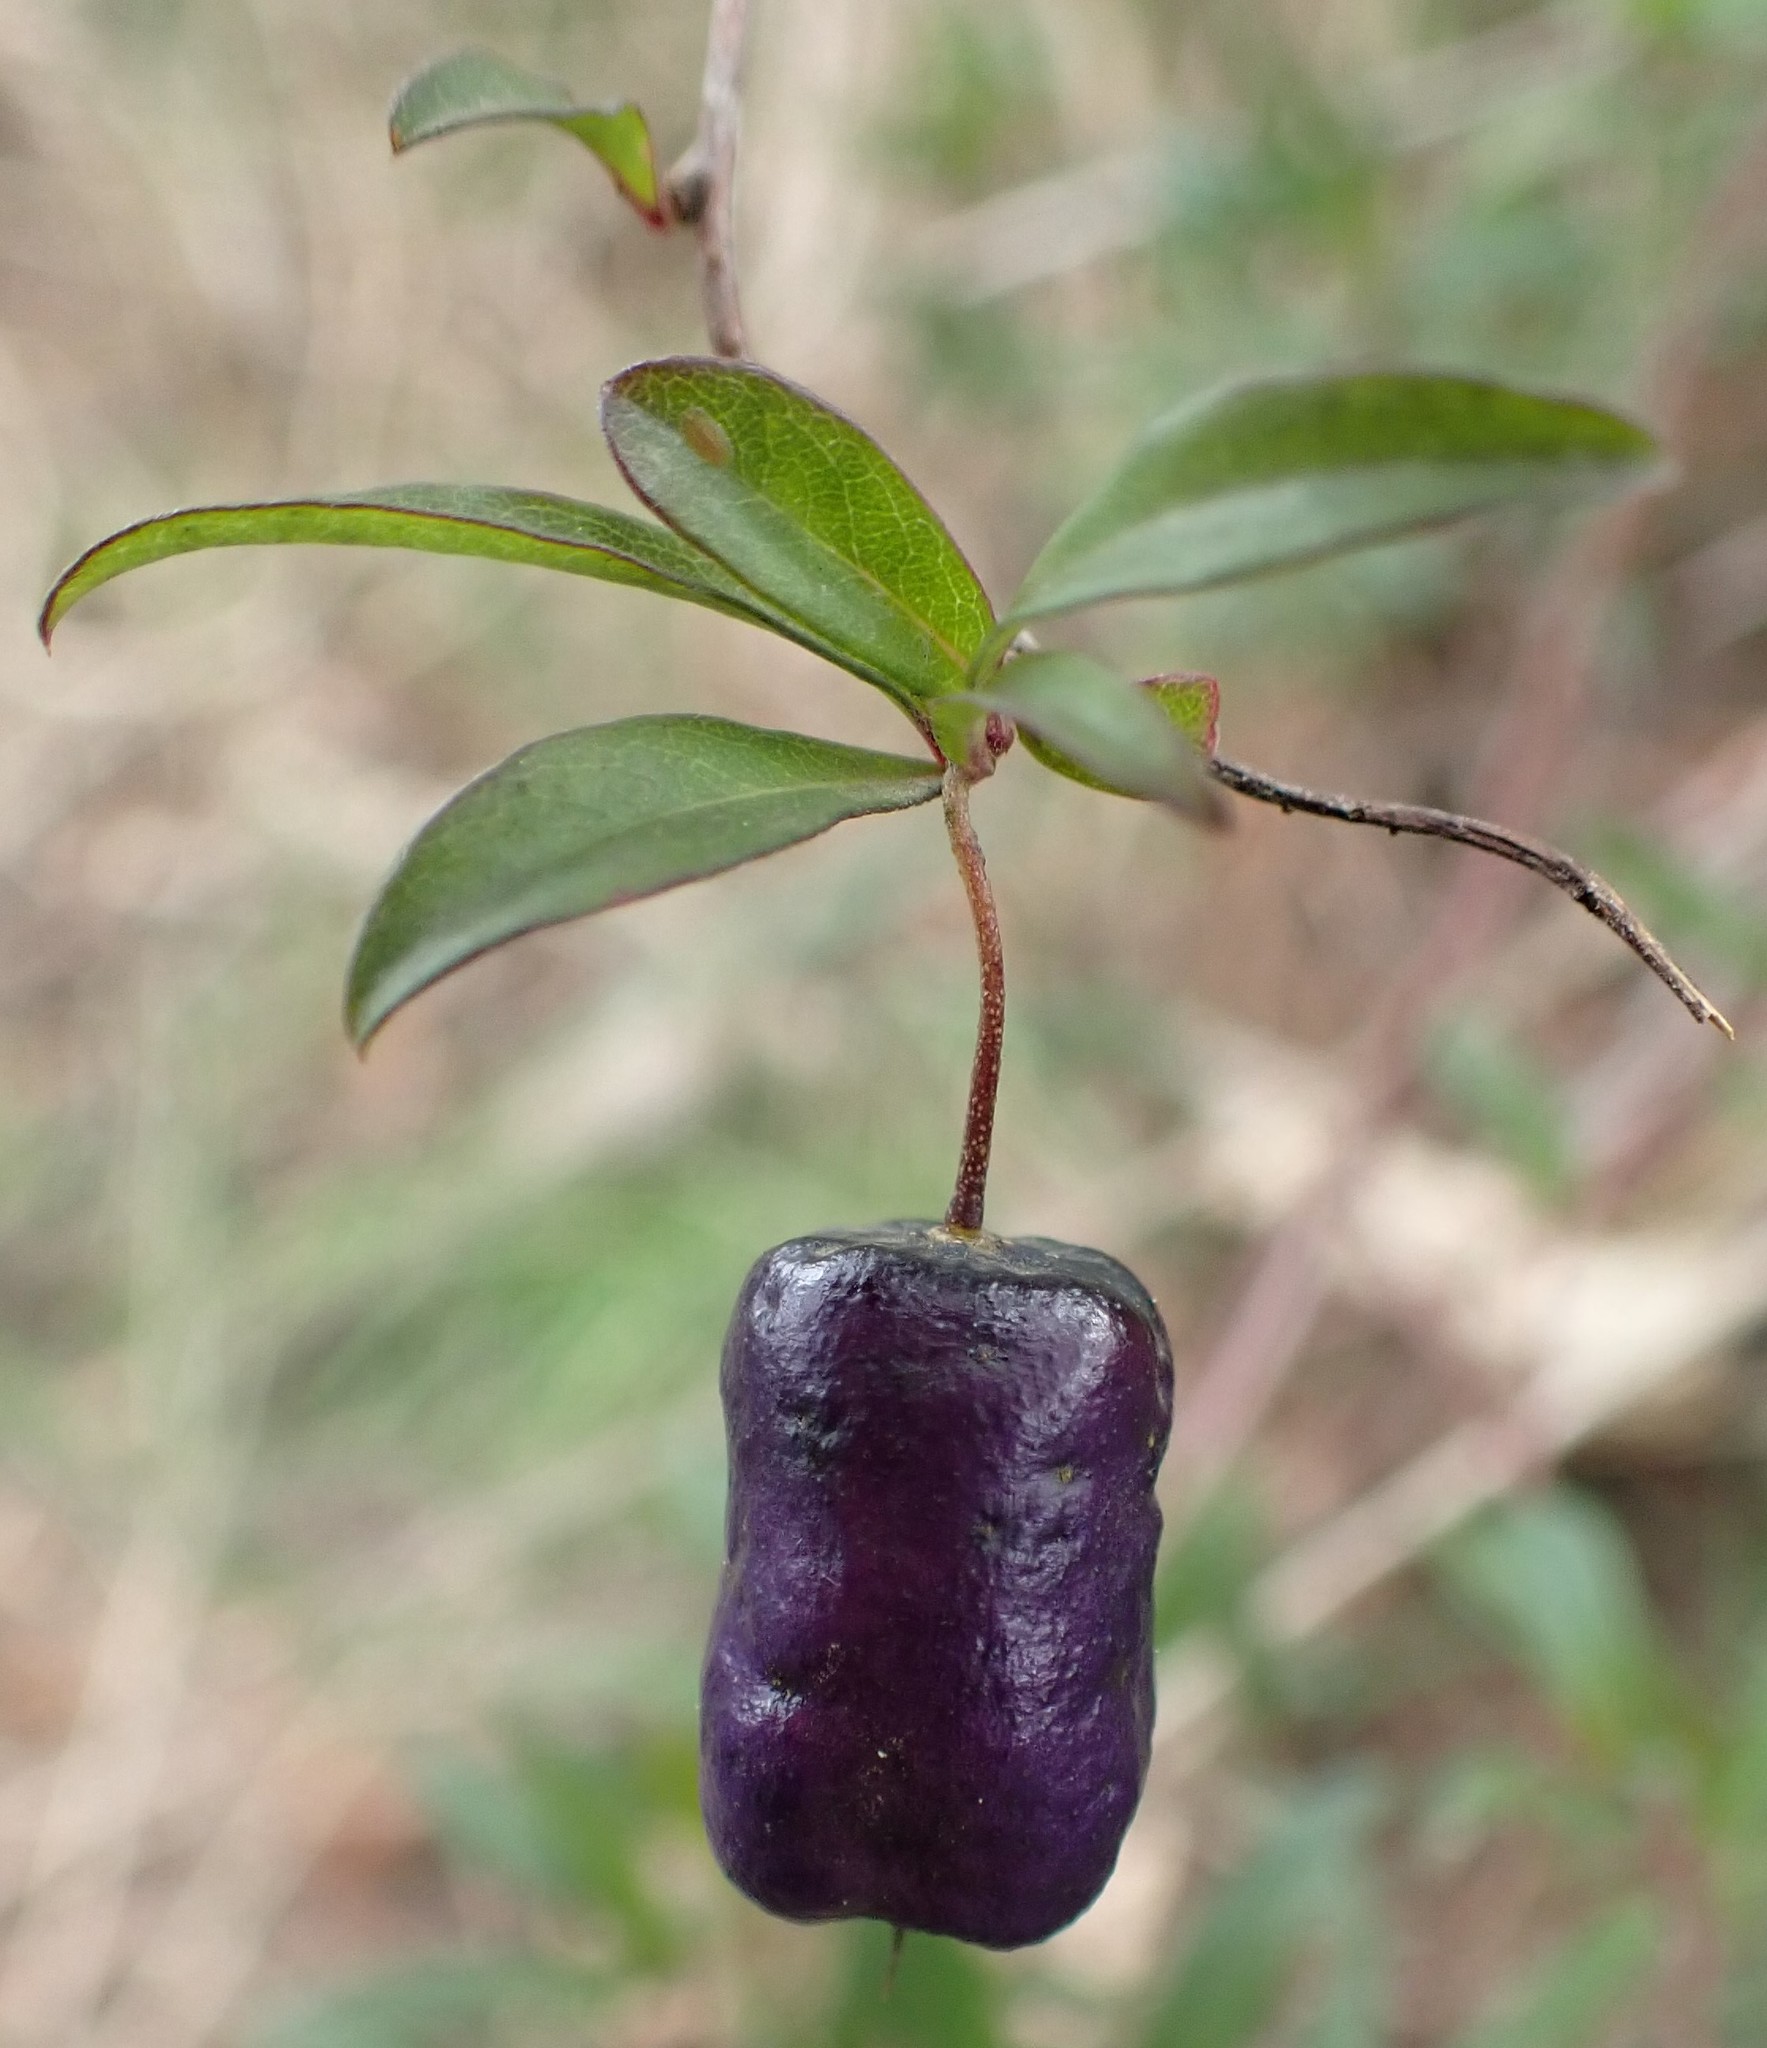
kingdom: Plantae
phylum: Tracheophyta
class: Magnoliopsida
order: Apiales
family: Pittosporaceae
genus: Billardiera
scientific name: Billardiera macrantha
